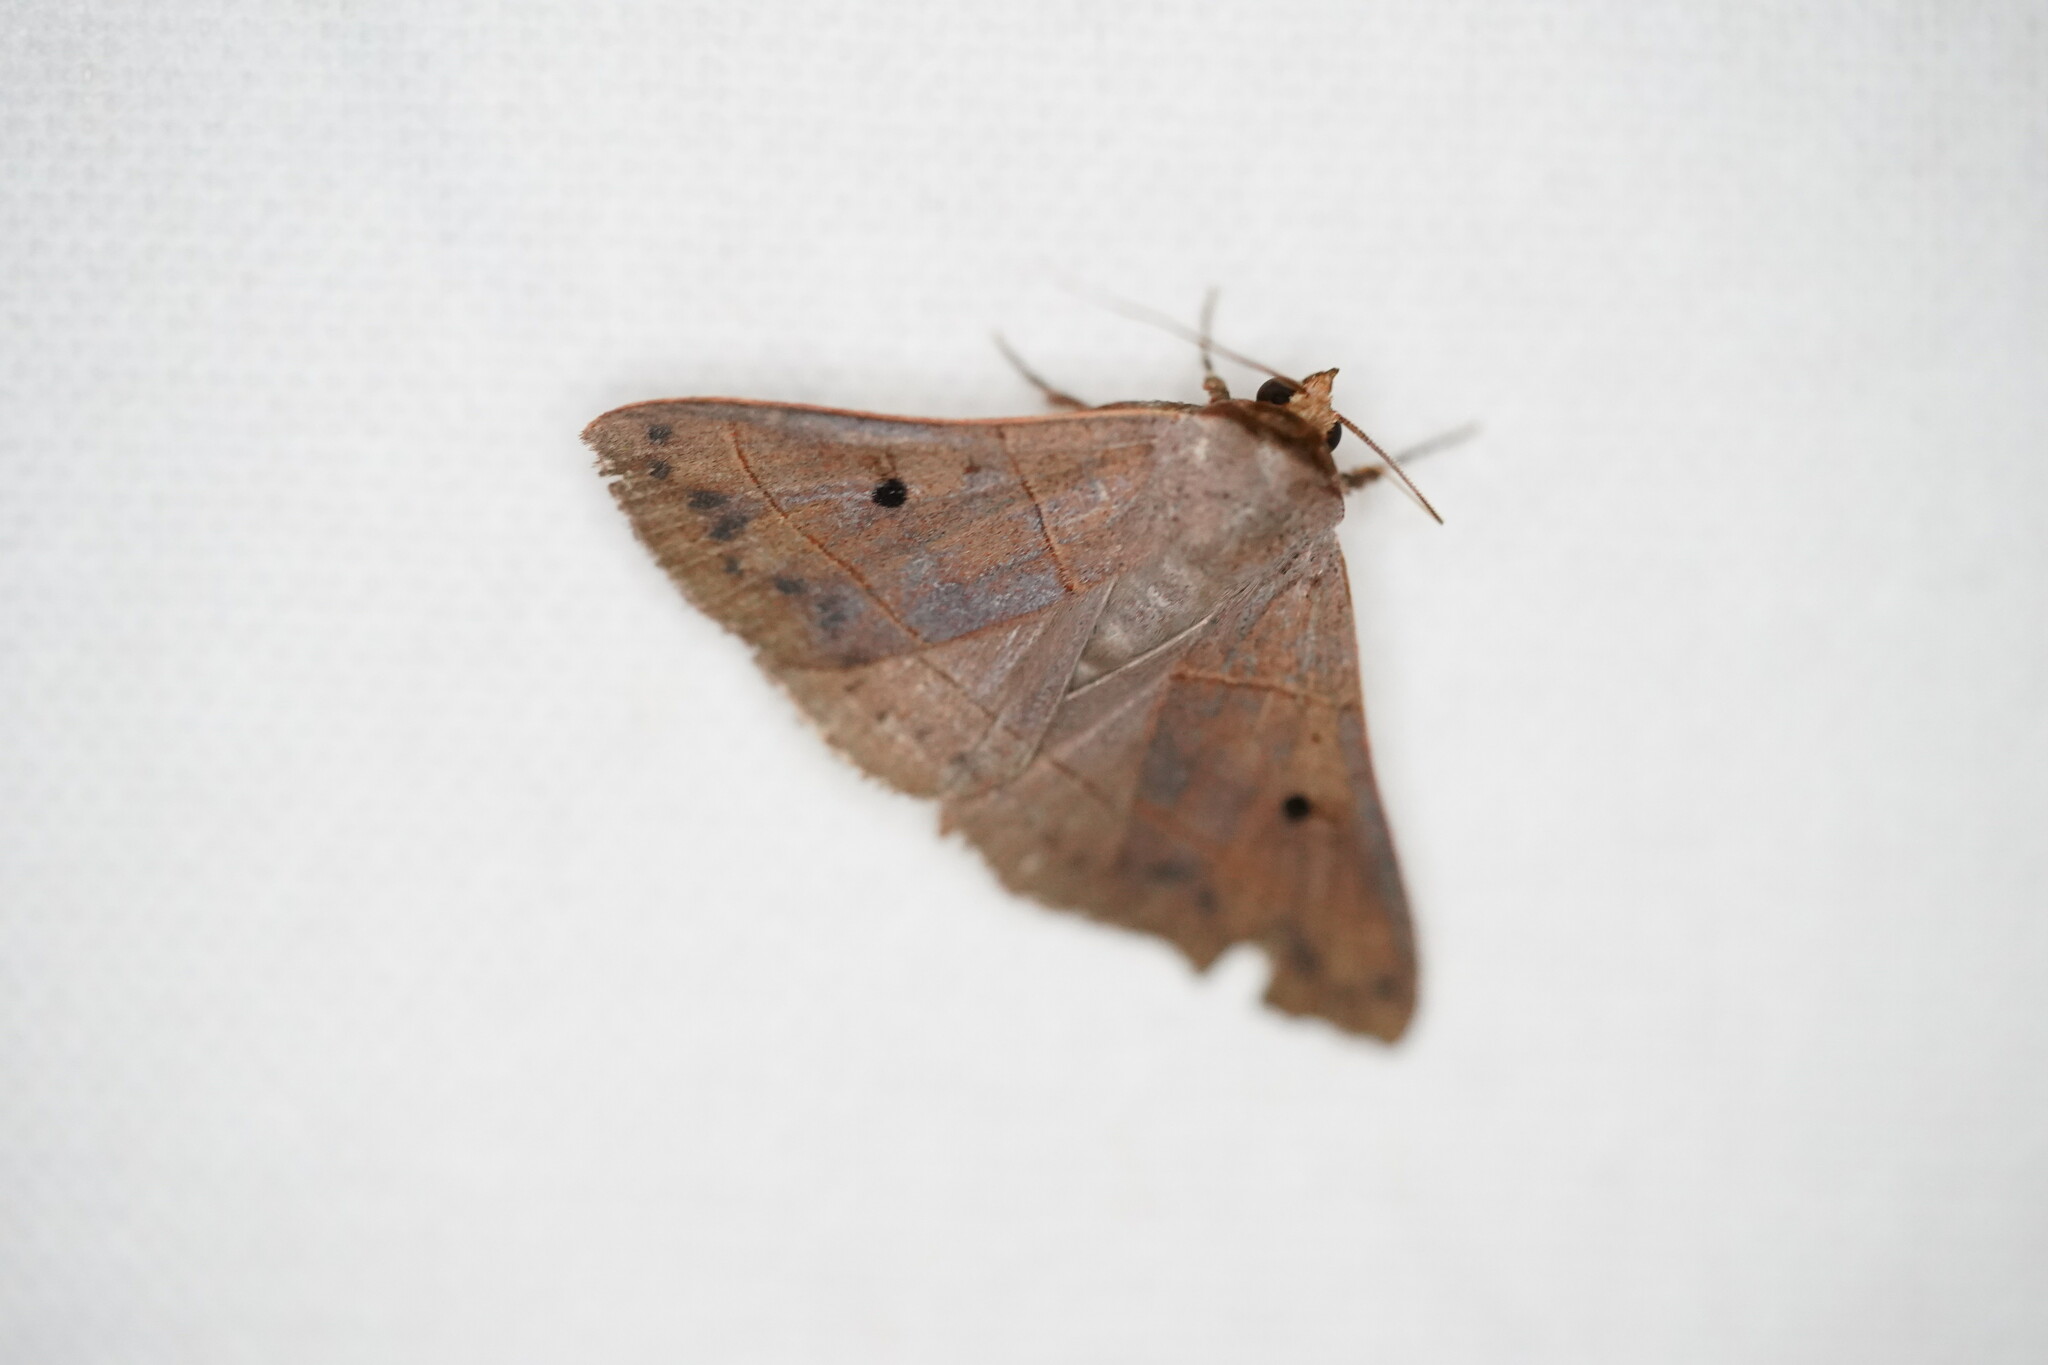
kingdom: Animalia
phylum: Arthropoda
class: Insecta
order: Lepidoptera
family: Erebidae
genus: Panopoda
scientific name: Panopoda rufimargo
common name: Red-lined panopoda moth
